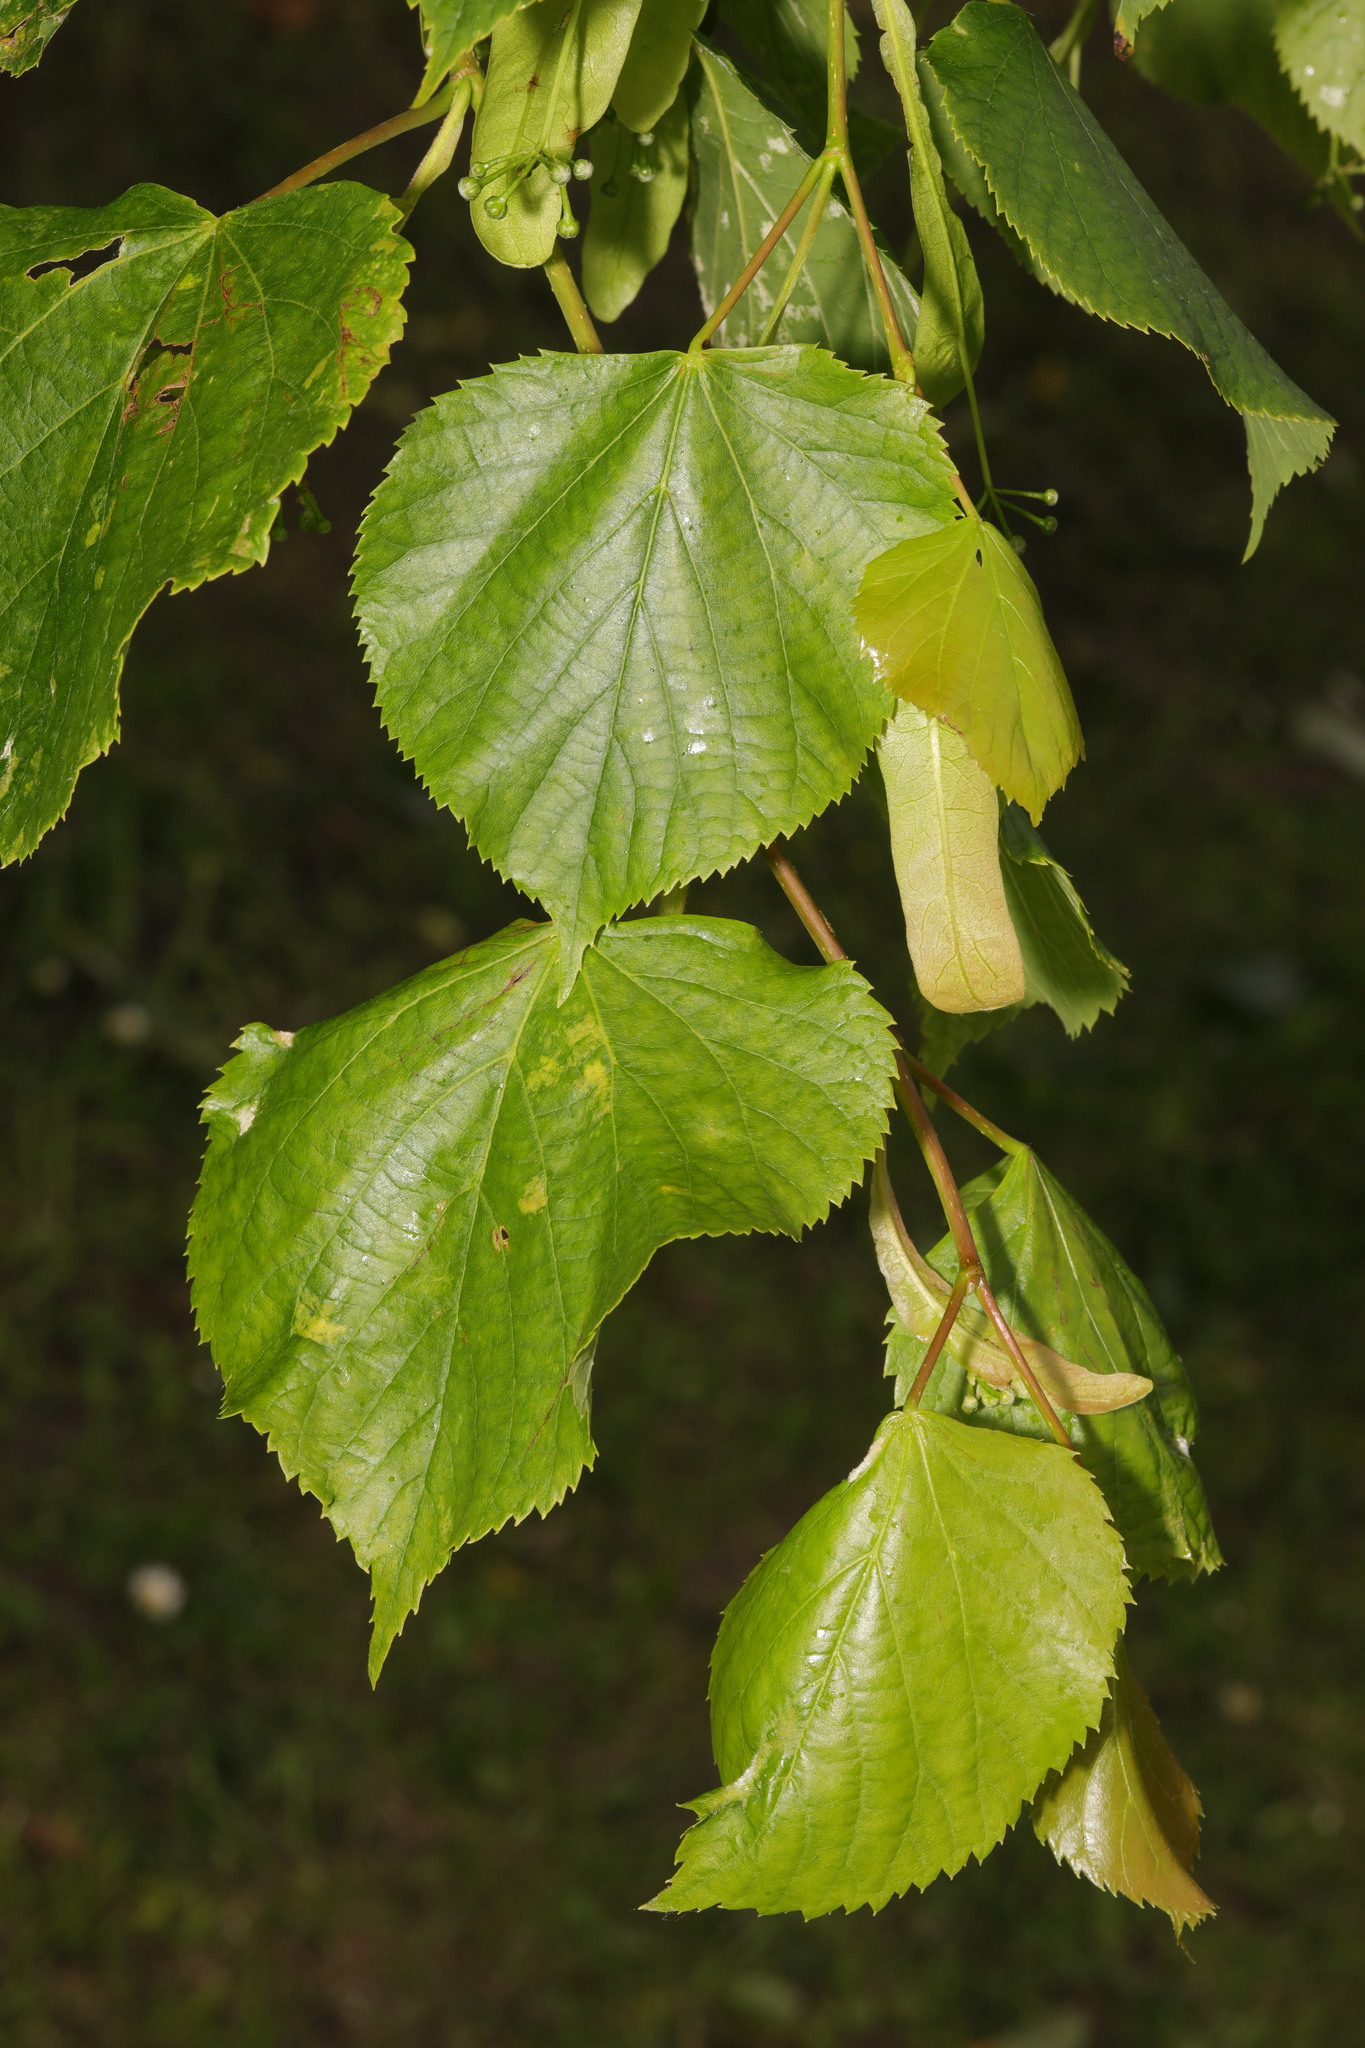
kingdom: Plantae
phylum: Tracheophyta
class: Magnoliopsida
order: Malvales
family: Malvaceae
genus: Tilia
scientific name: Tilia europaea
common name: European linden
